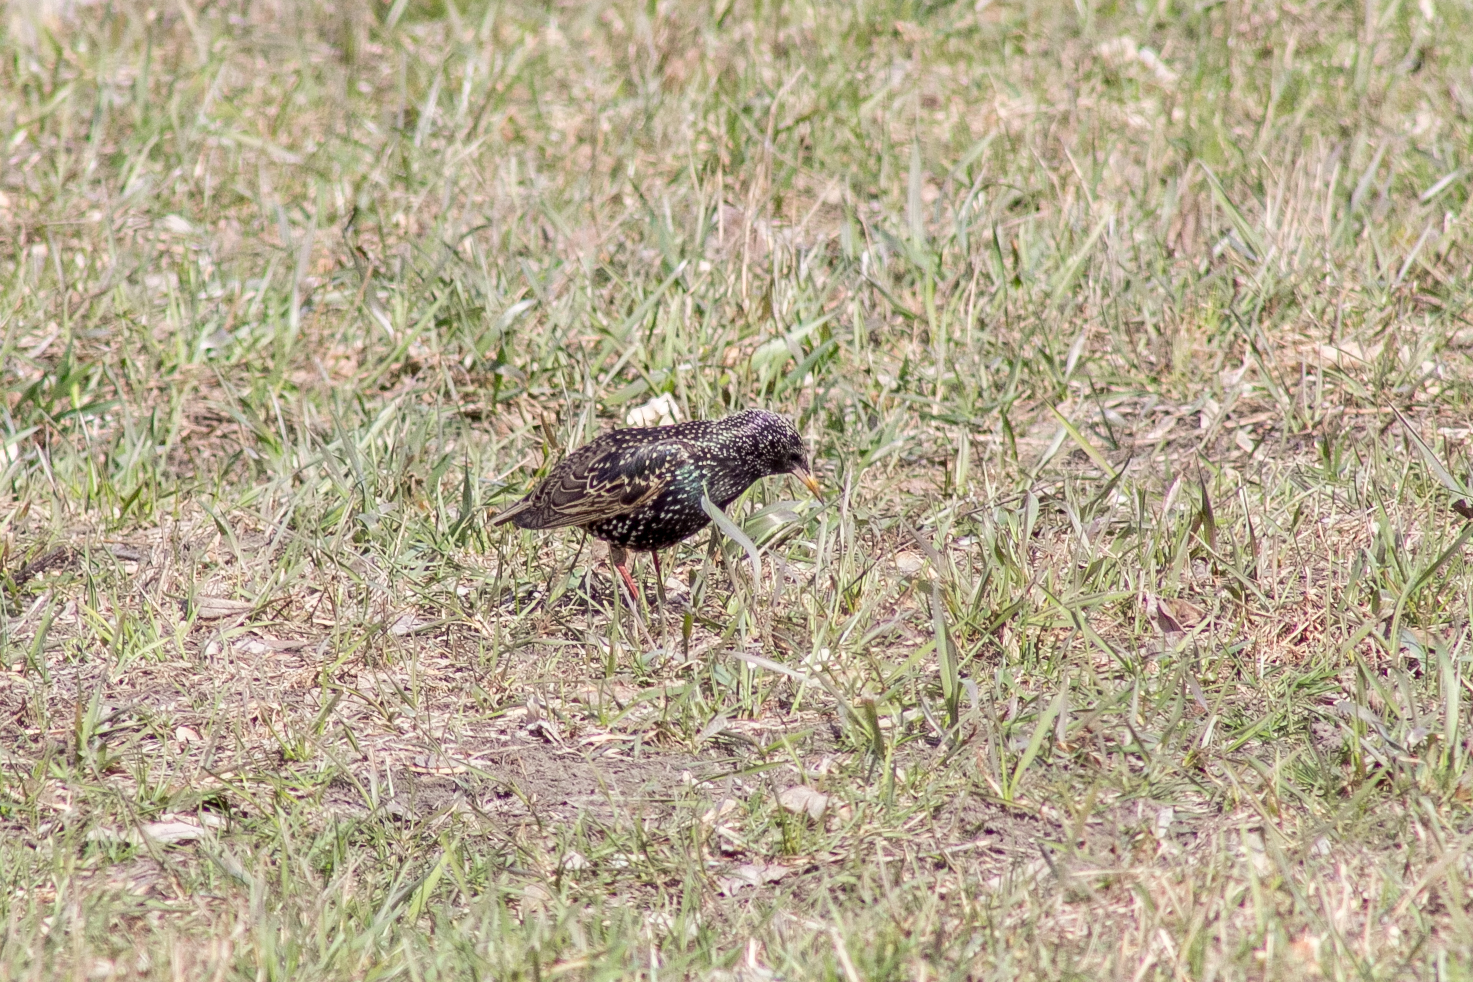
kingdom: Animalia
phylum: Chordata
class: Aves
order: Passeriformes
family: Sturnidae
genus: Sturnus
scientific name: Sturnus vulgaris
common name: Common starling
